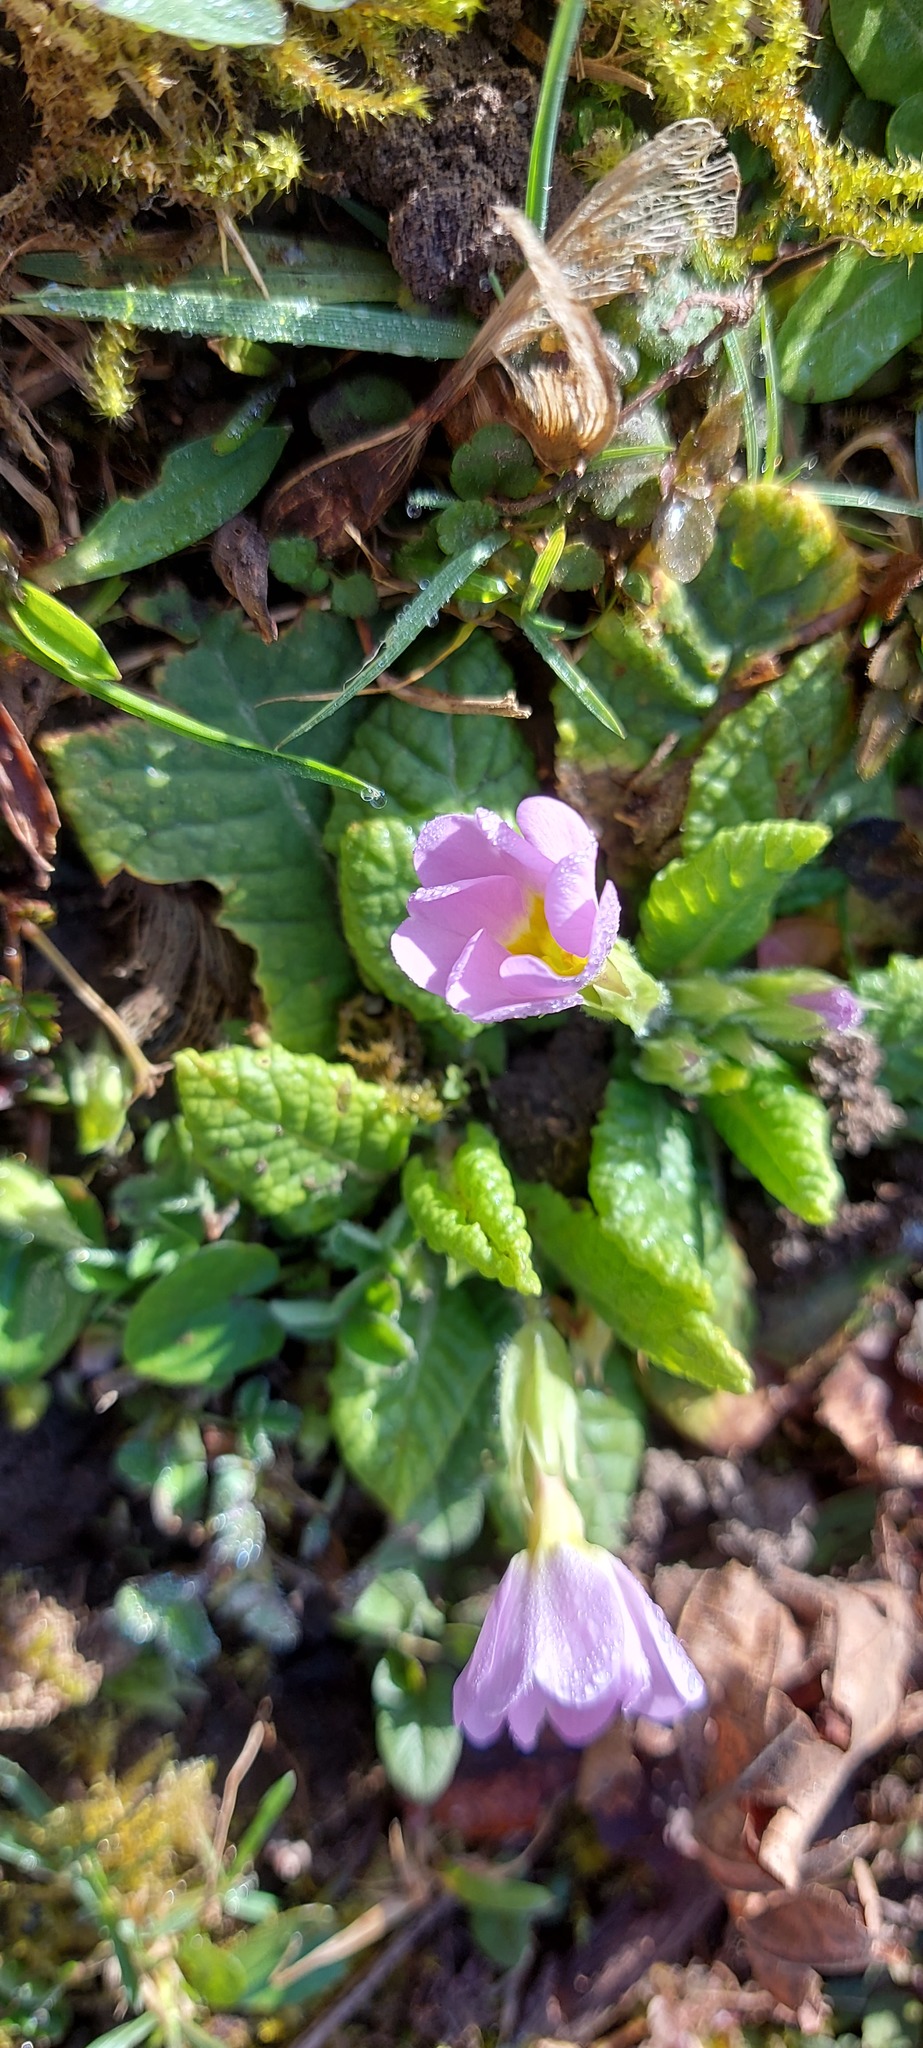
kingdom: Plantae
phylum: Tracheophyta
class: Magnoliopsida
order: Ericales
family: Primulaceae
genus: Primula
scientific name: Primula vulgaris
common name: Primrose
